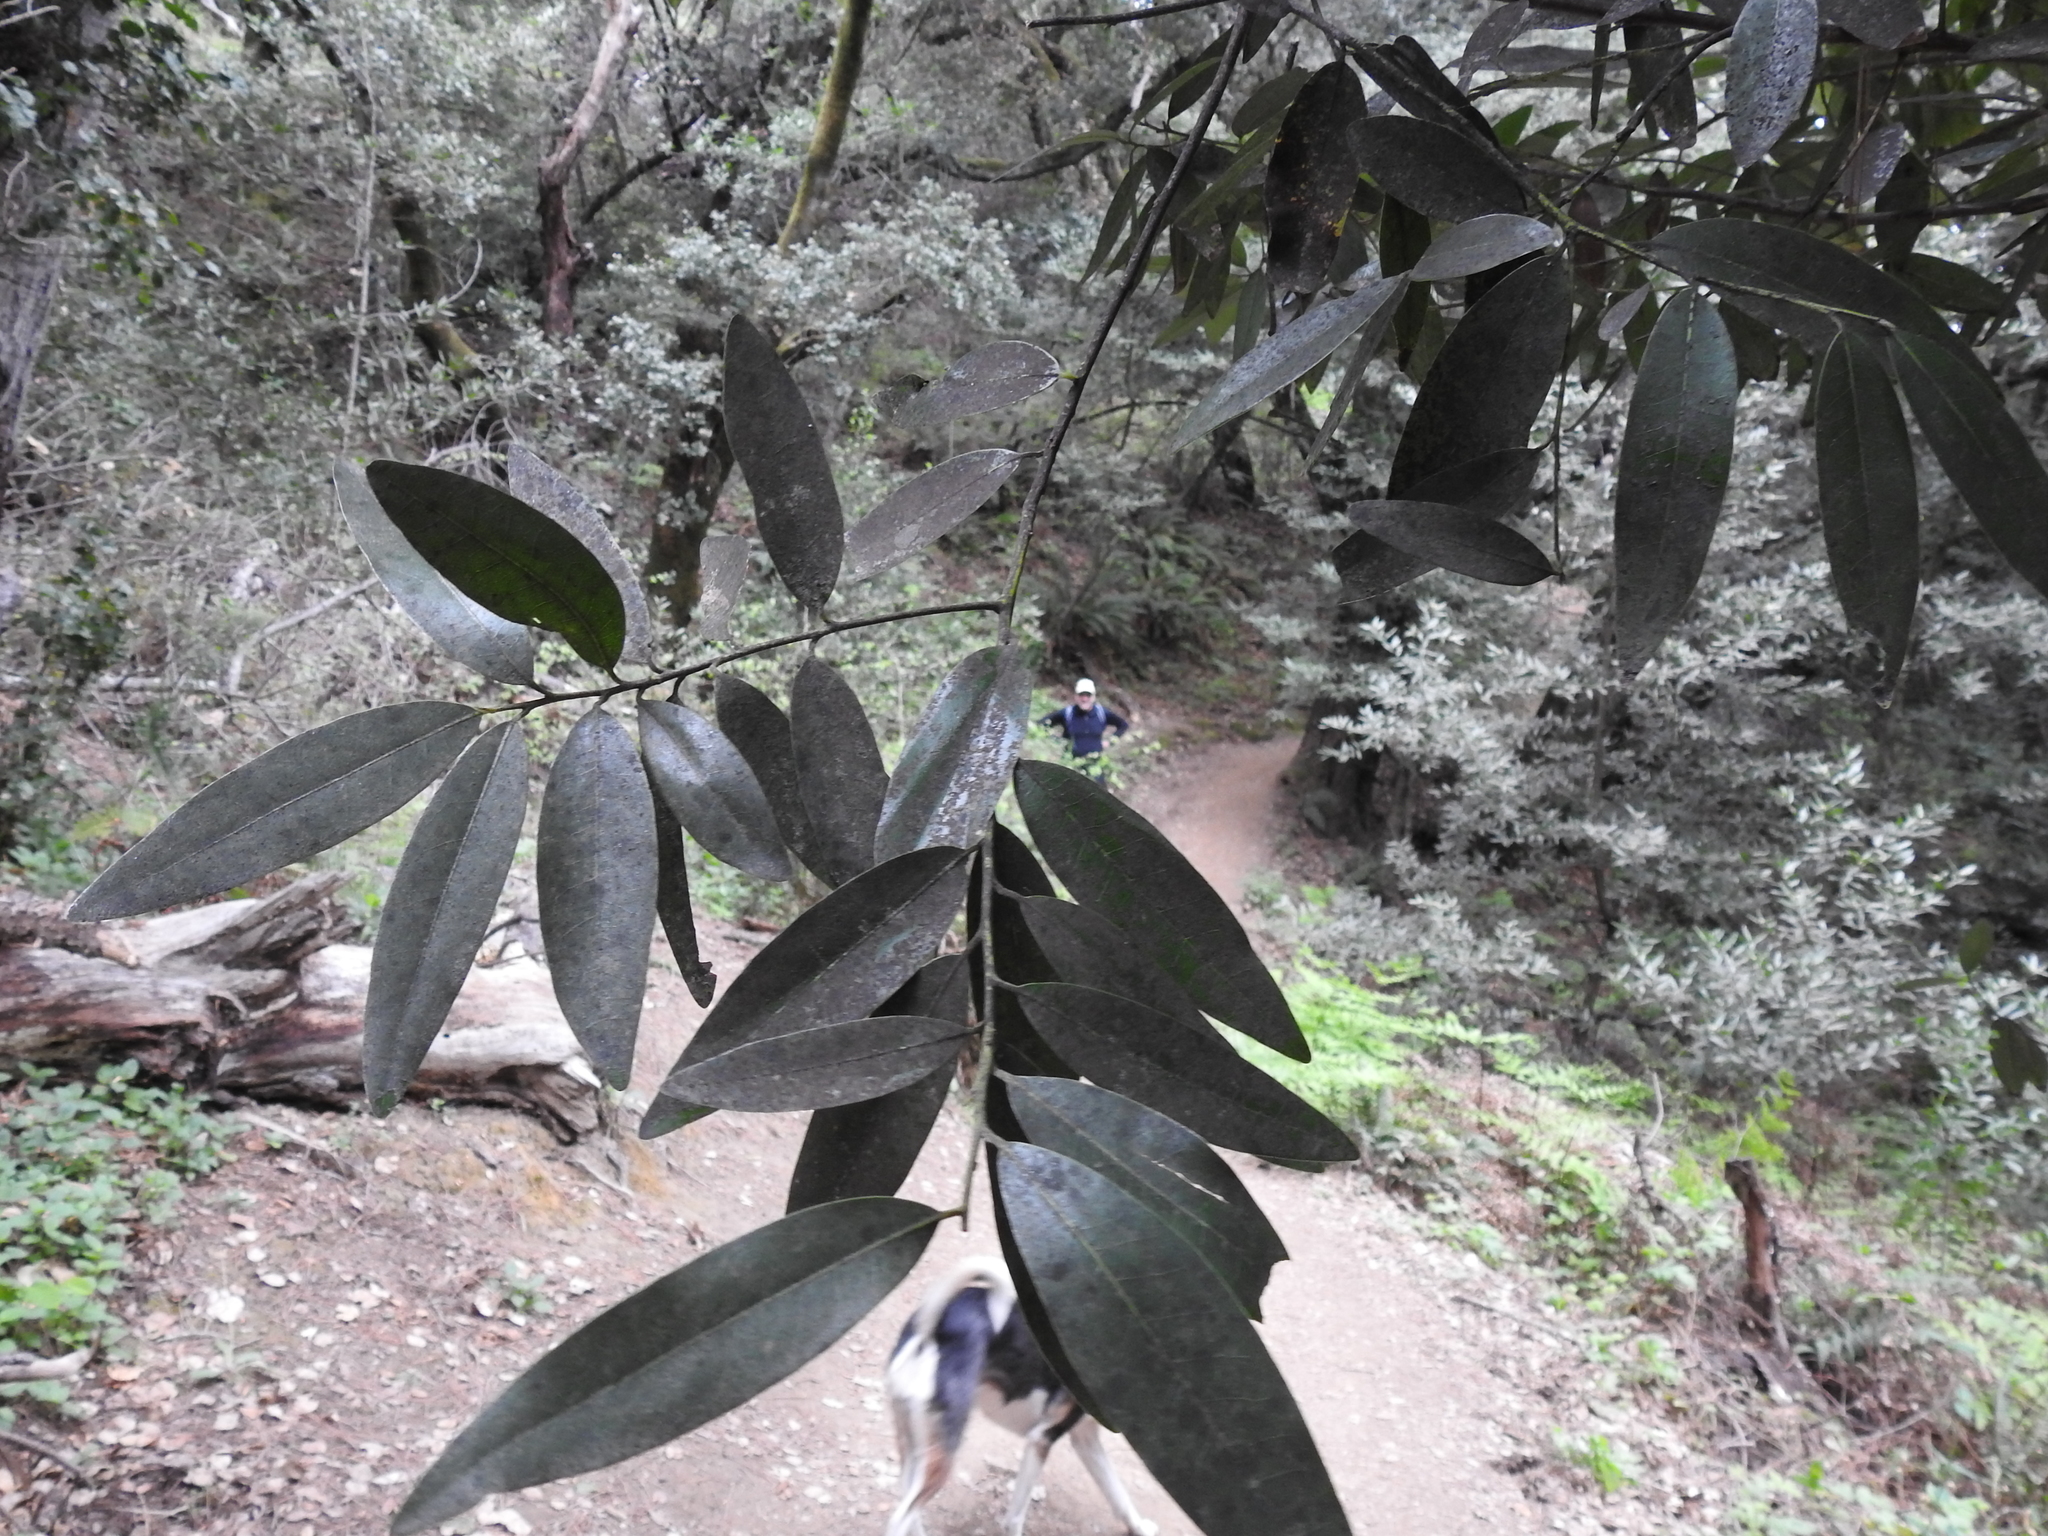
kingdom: Plantae
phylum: Tracheophyta
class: Magnoliopsida
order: Laurales
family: Lauraceae
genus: Umbellularia
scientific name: Umbellularia californica
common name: California bay
